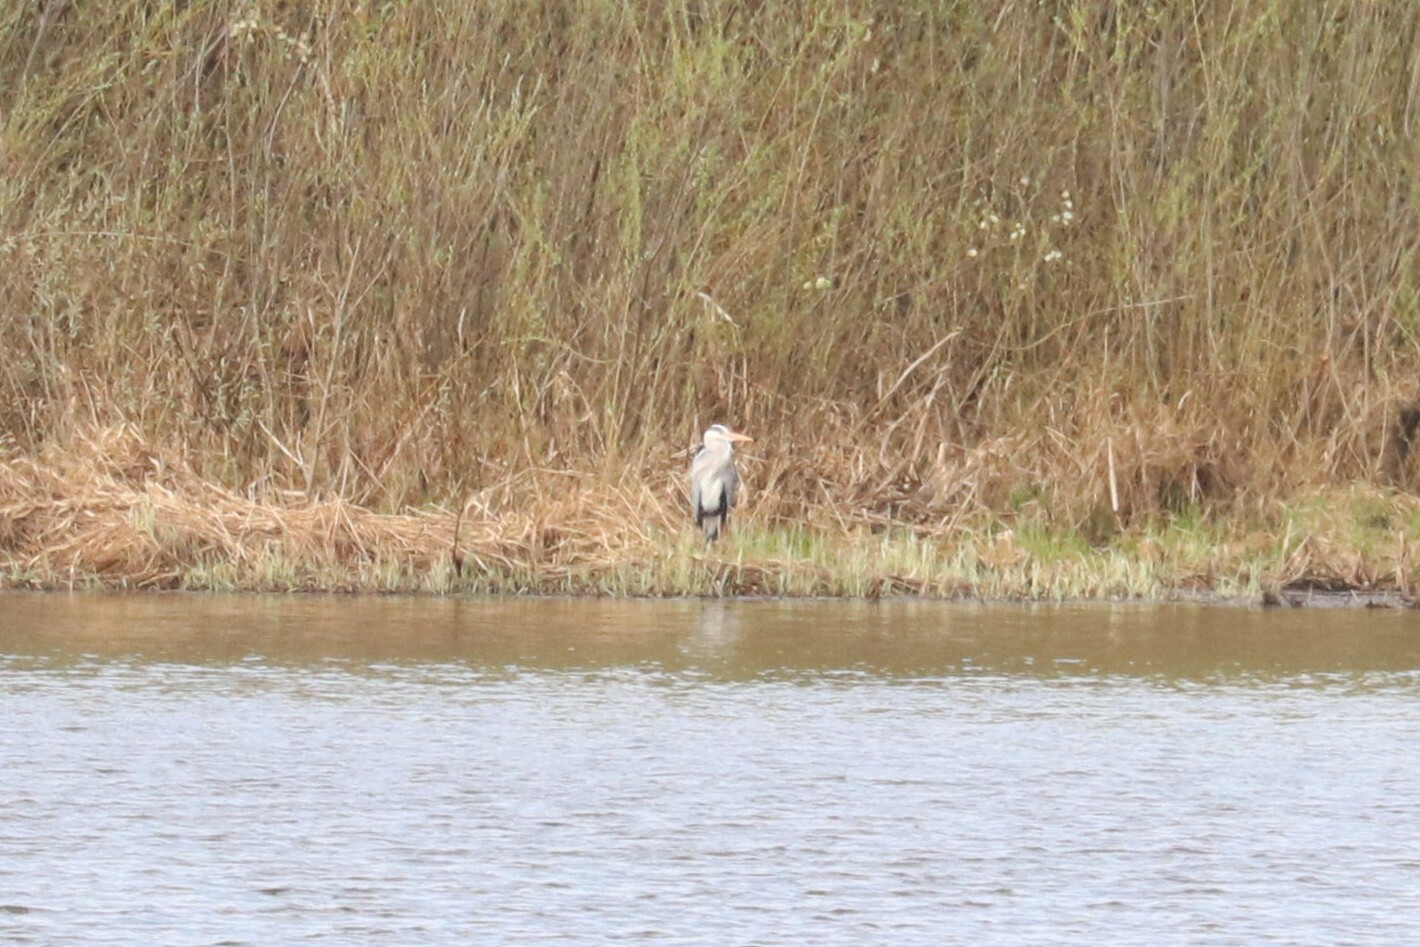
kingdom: Animalia
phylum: Chordata
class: Aves
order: Pelecaniformes
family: Ardeidae
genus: Ardea
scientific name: Ardea cinerea
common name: Grey heron
